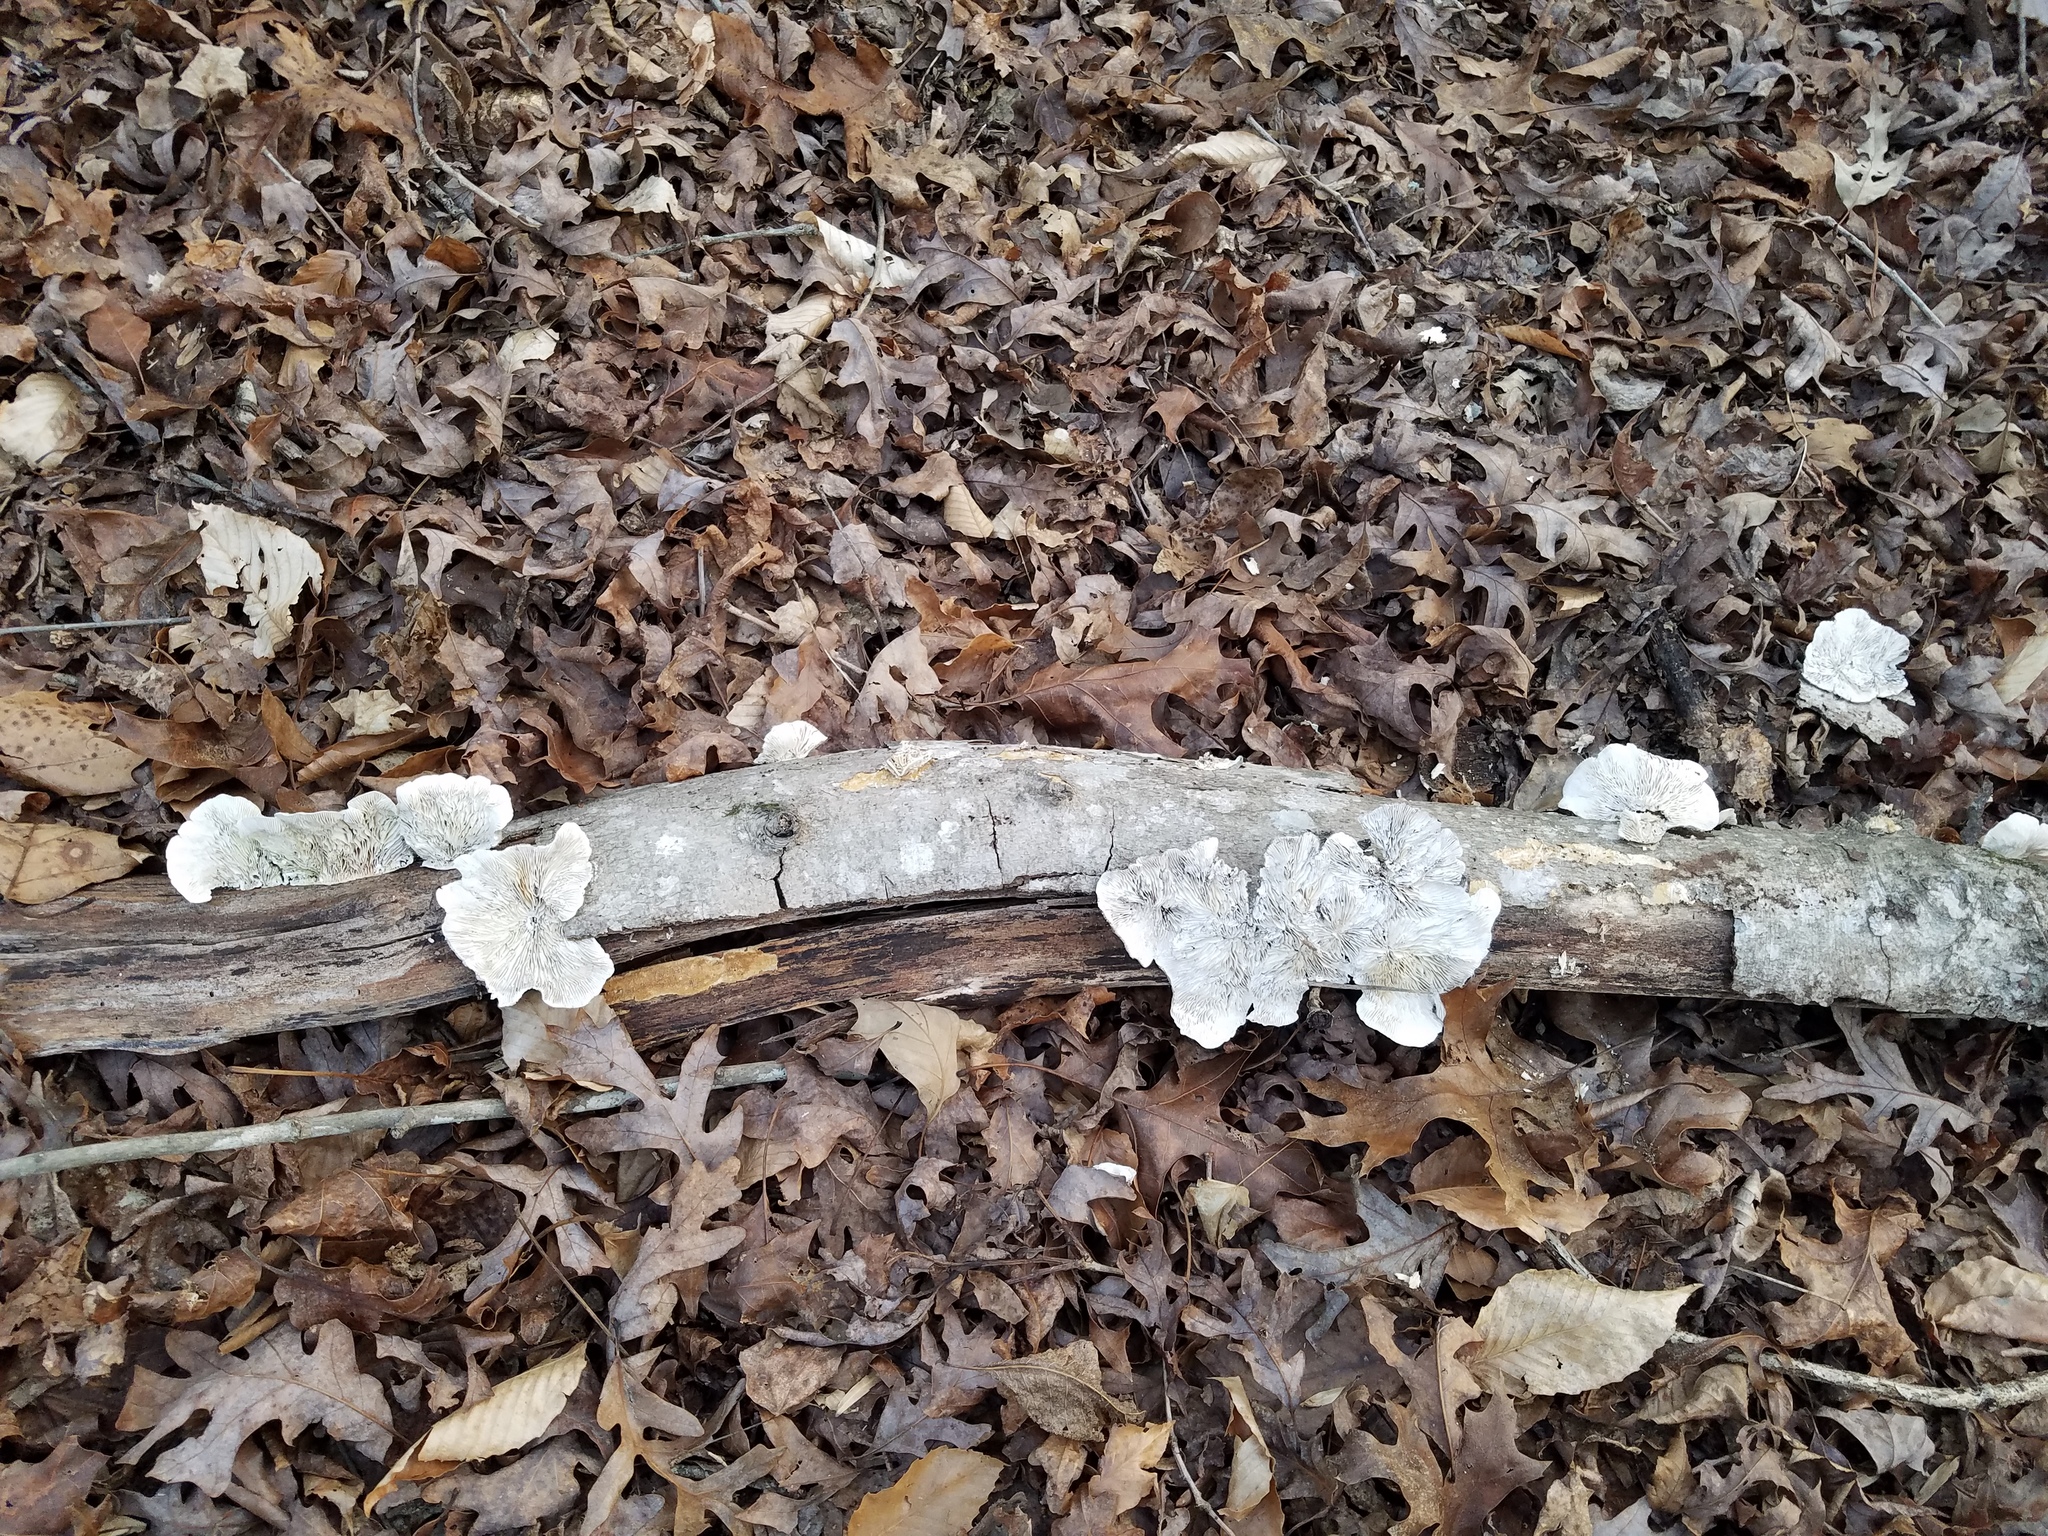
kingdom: Fungi
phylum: Basidiomycota
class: Agaricomycetes
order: Polyporales
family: Polyporaceae
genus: Lenzites
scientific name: Lenzites betulinus
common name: Birch mazegill
